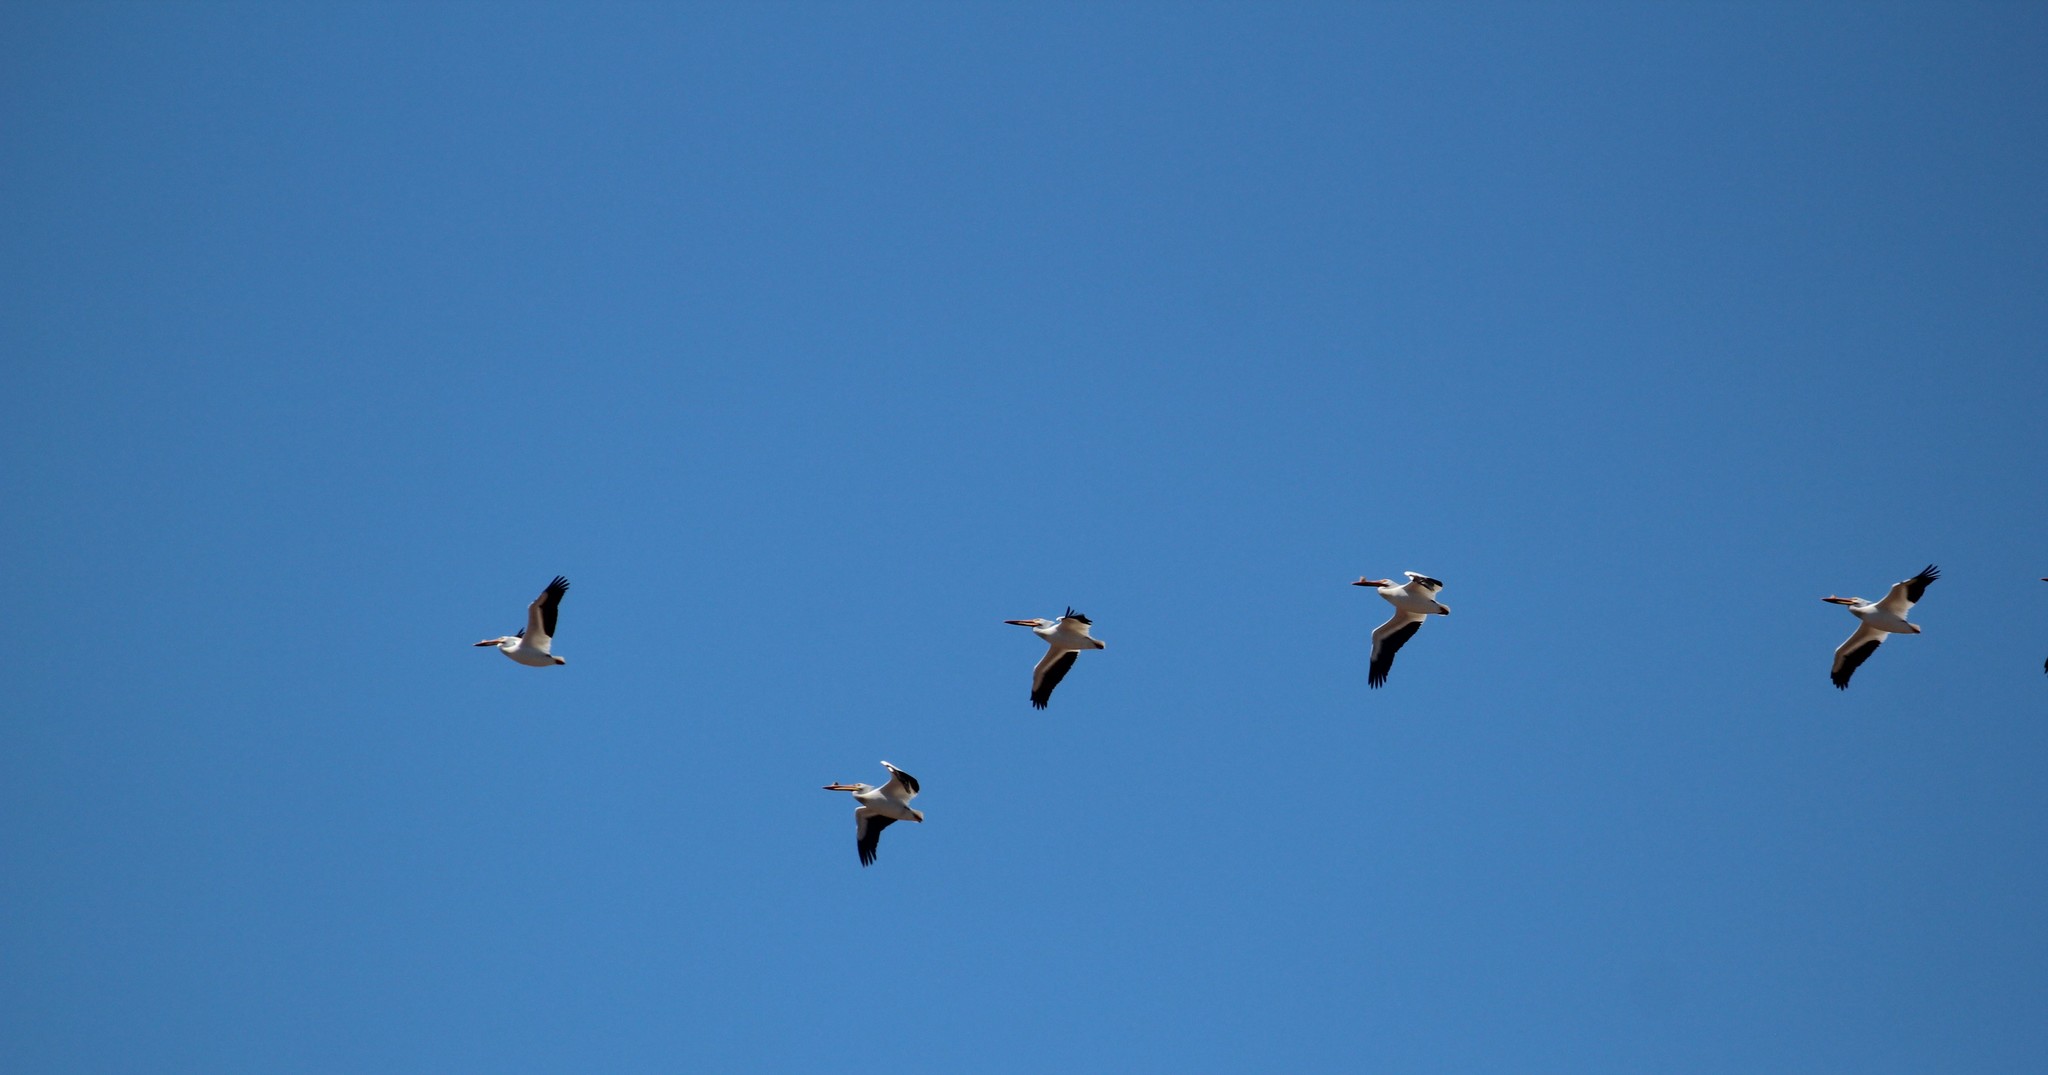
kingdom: Animalia
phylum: Chordata
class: Aves
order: Pelecaniformes
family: Pelecanidae
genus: Pelecanus
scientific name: Pelecanus erythrorhynchos
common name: American white pelican
